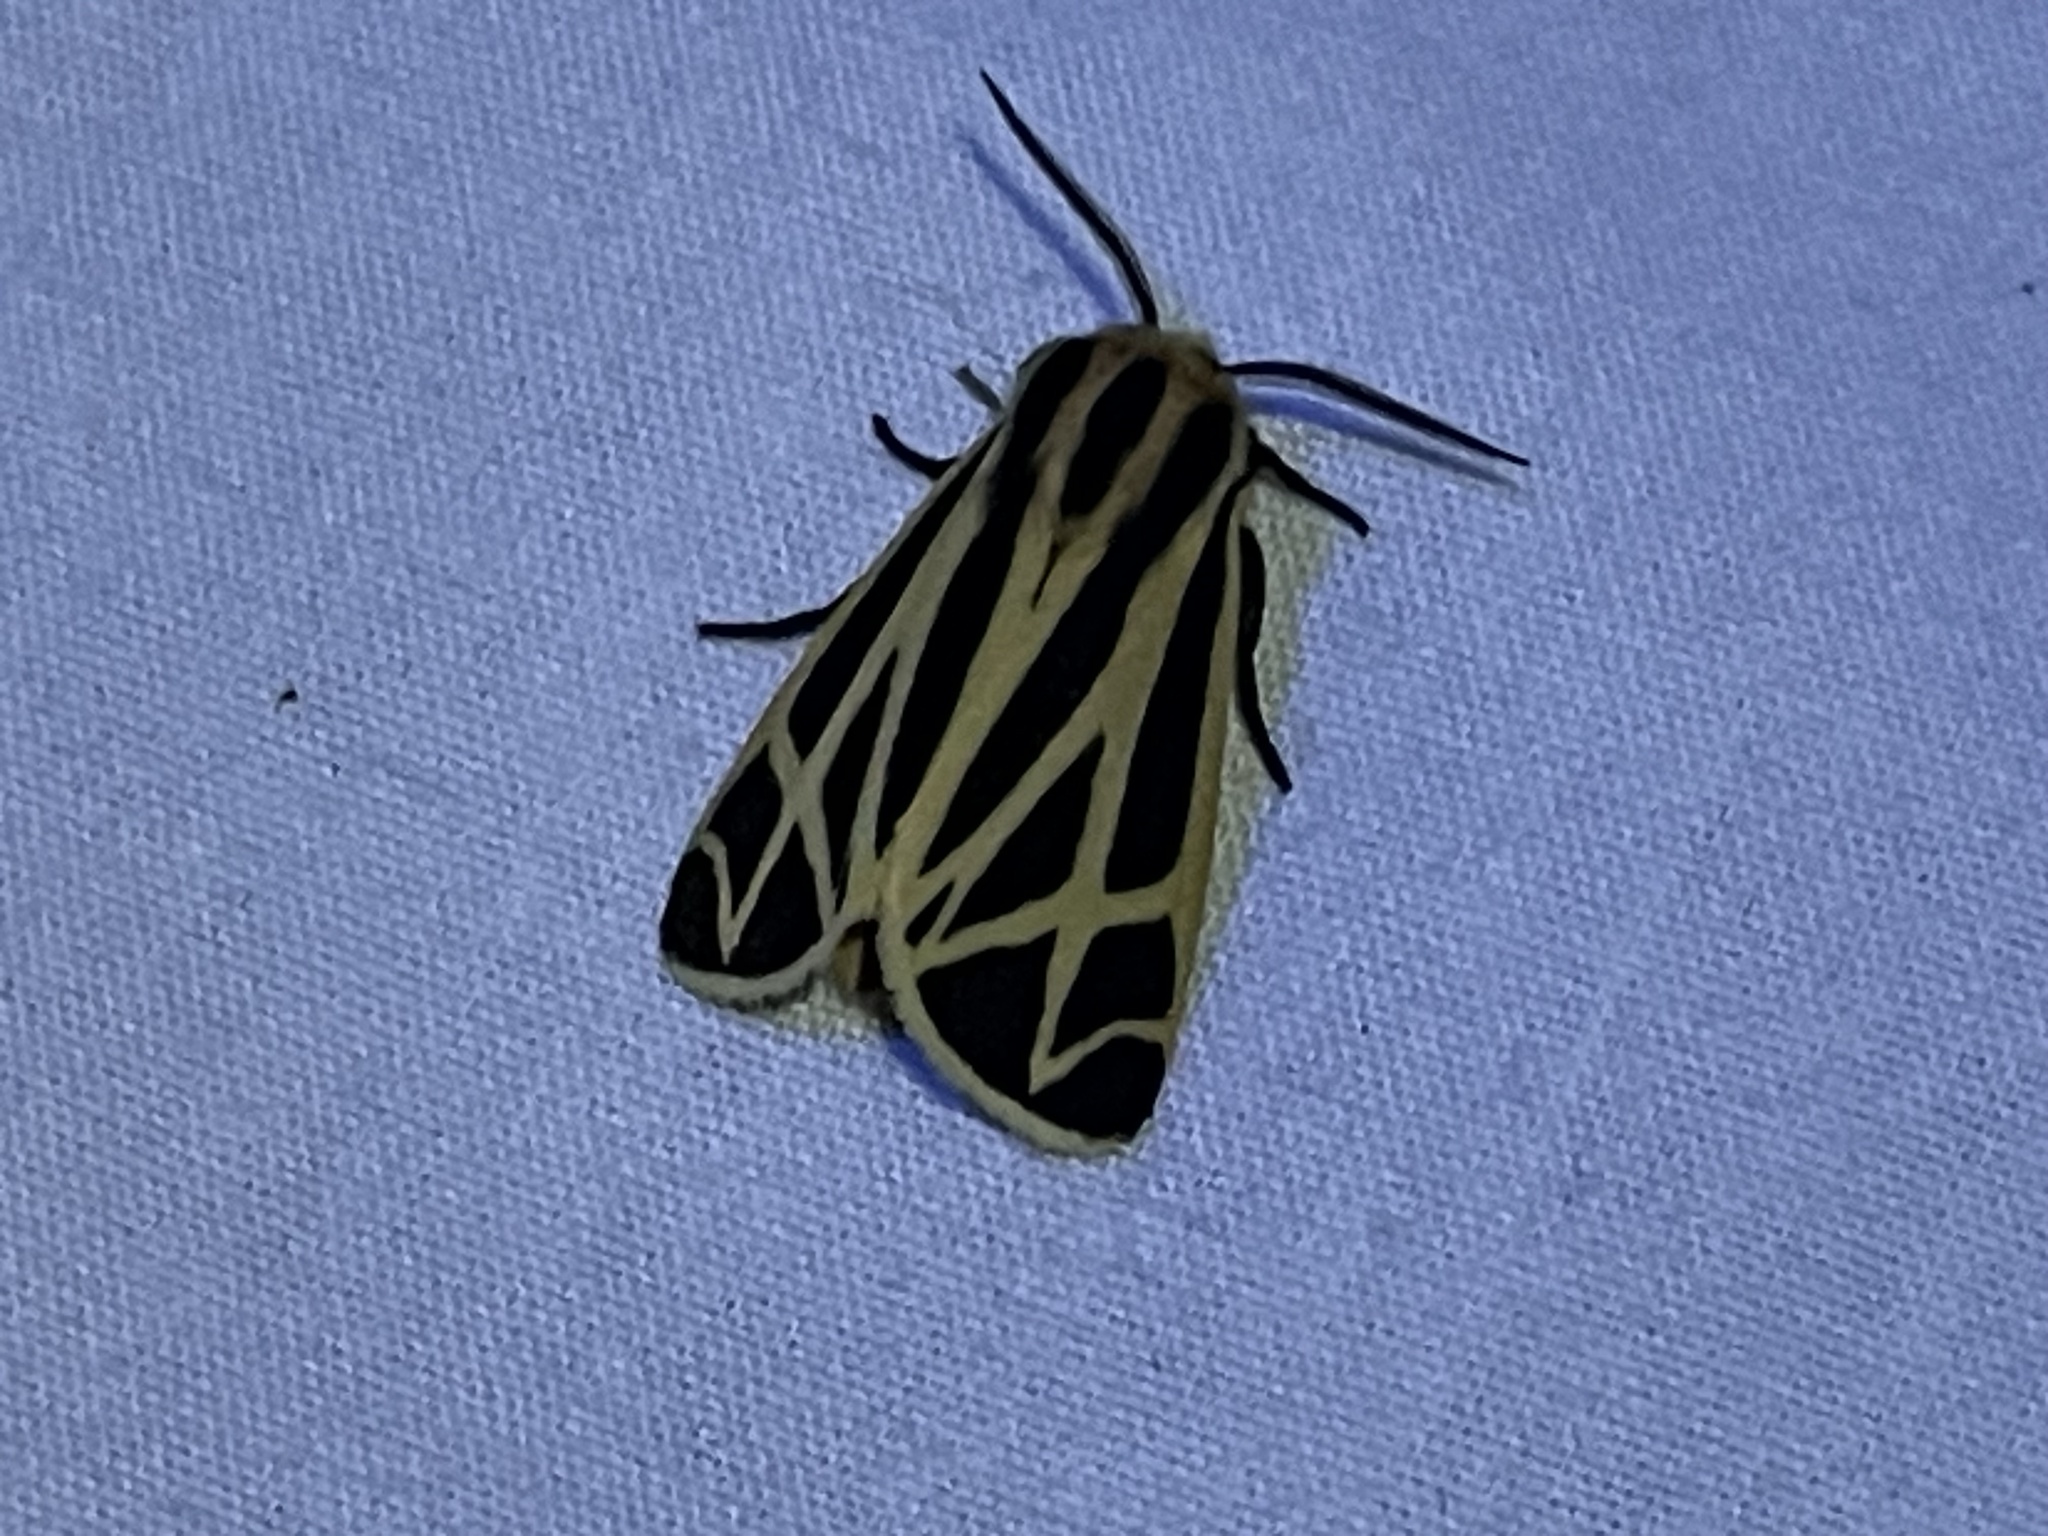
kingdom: Animalia
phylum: Arthropoda
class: Insecta
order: Lepidoptera
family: Erebidae
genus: Apantesis
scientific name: Apantesis phalerata
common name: Harnessed tiger moth
